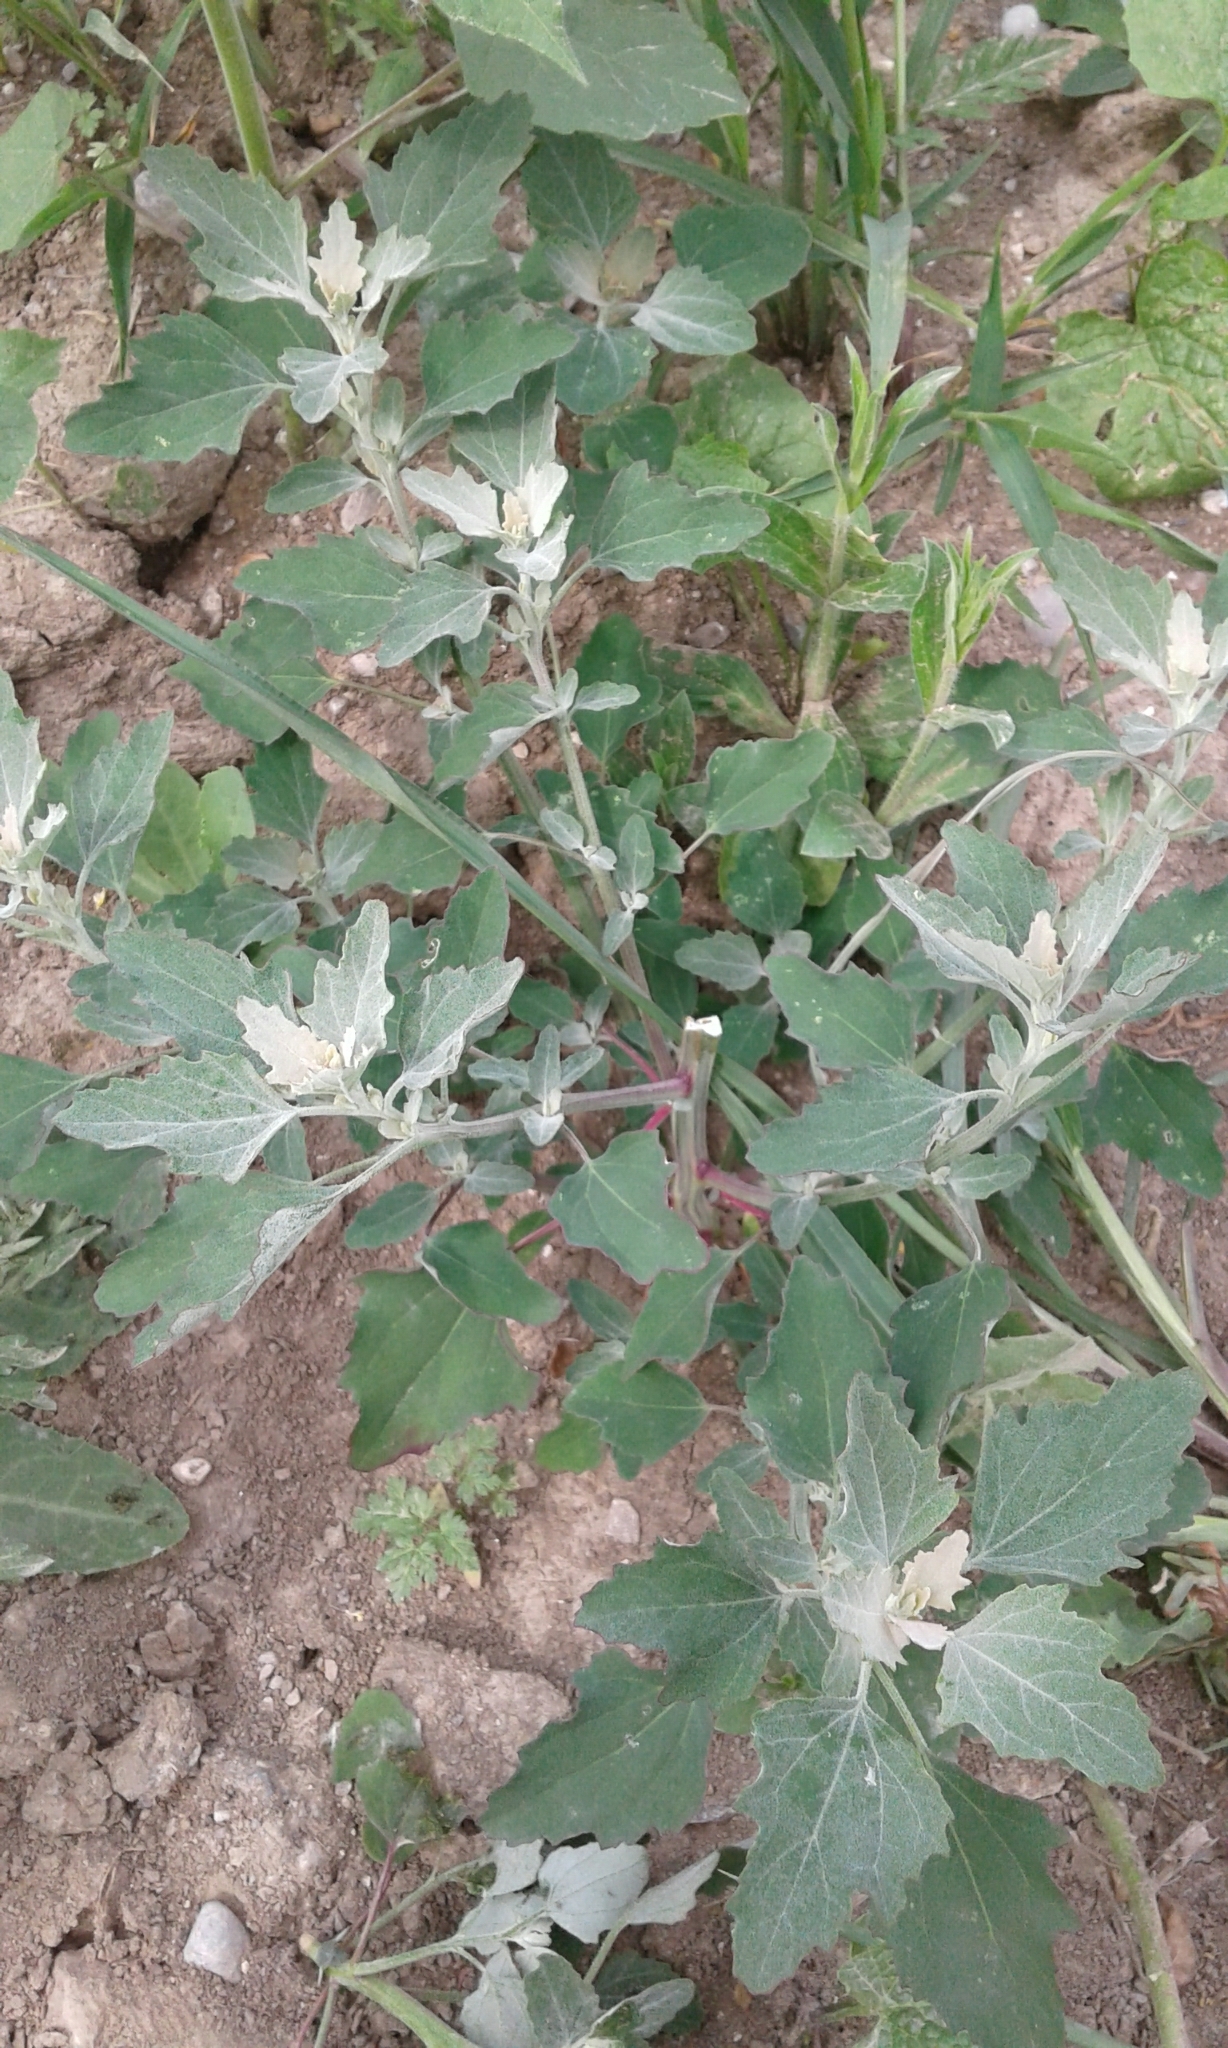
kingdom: Plantae
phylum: Tracheophyta
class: Magnoliopsida
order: Caryophyllales
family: Amaranthaceae
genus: Chenopodium
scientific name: Chenopodium album
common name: Fat-hen
